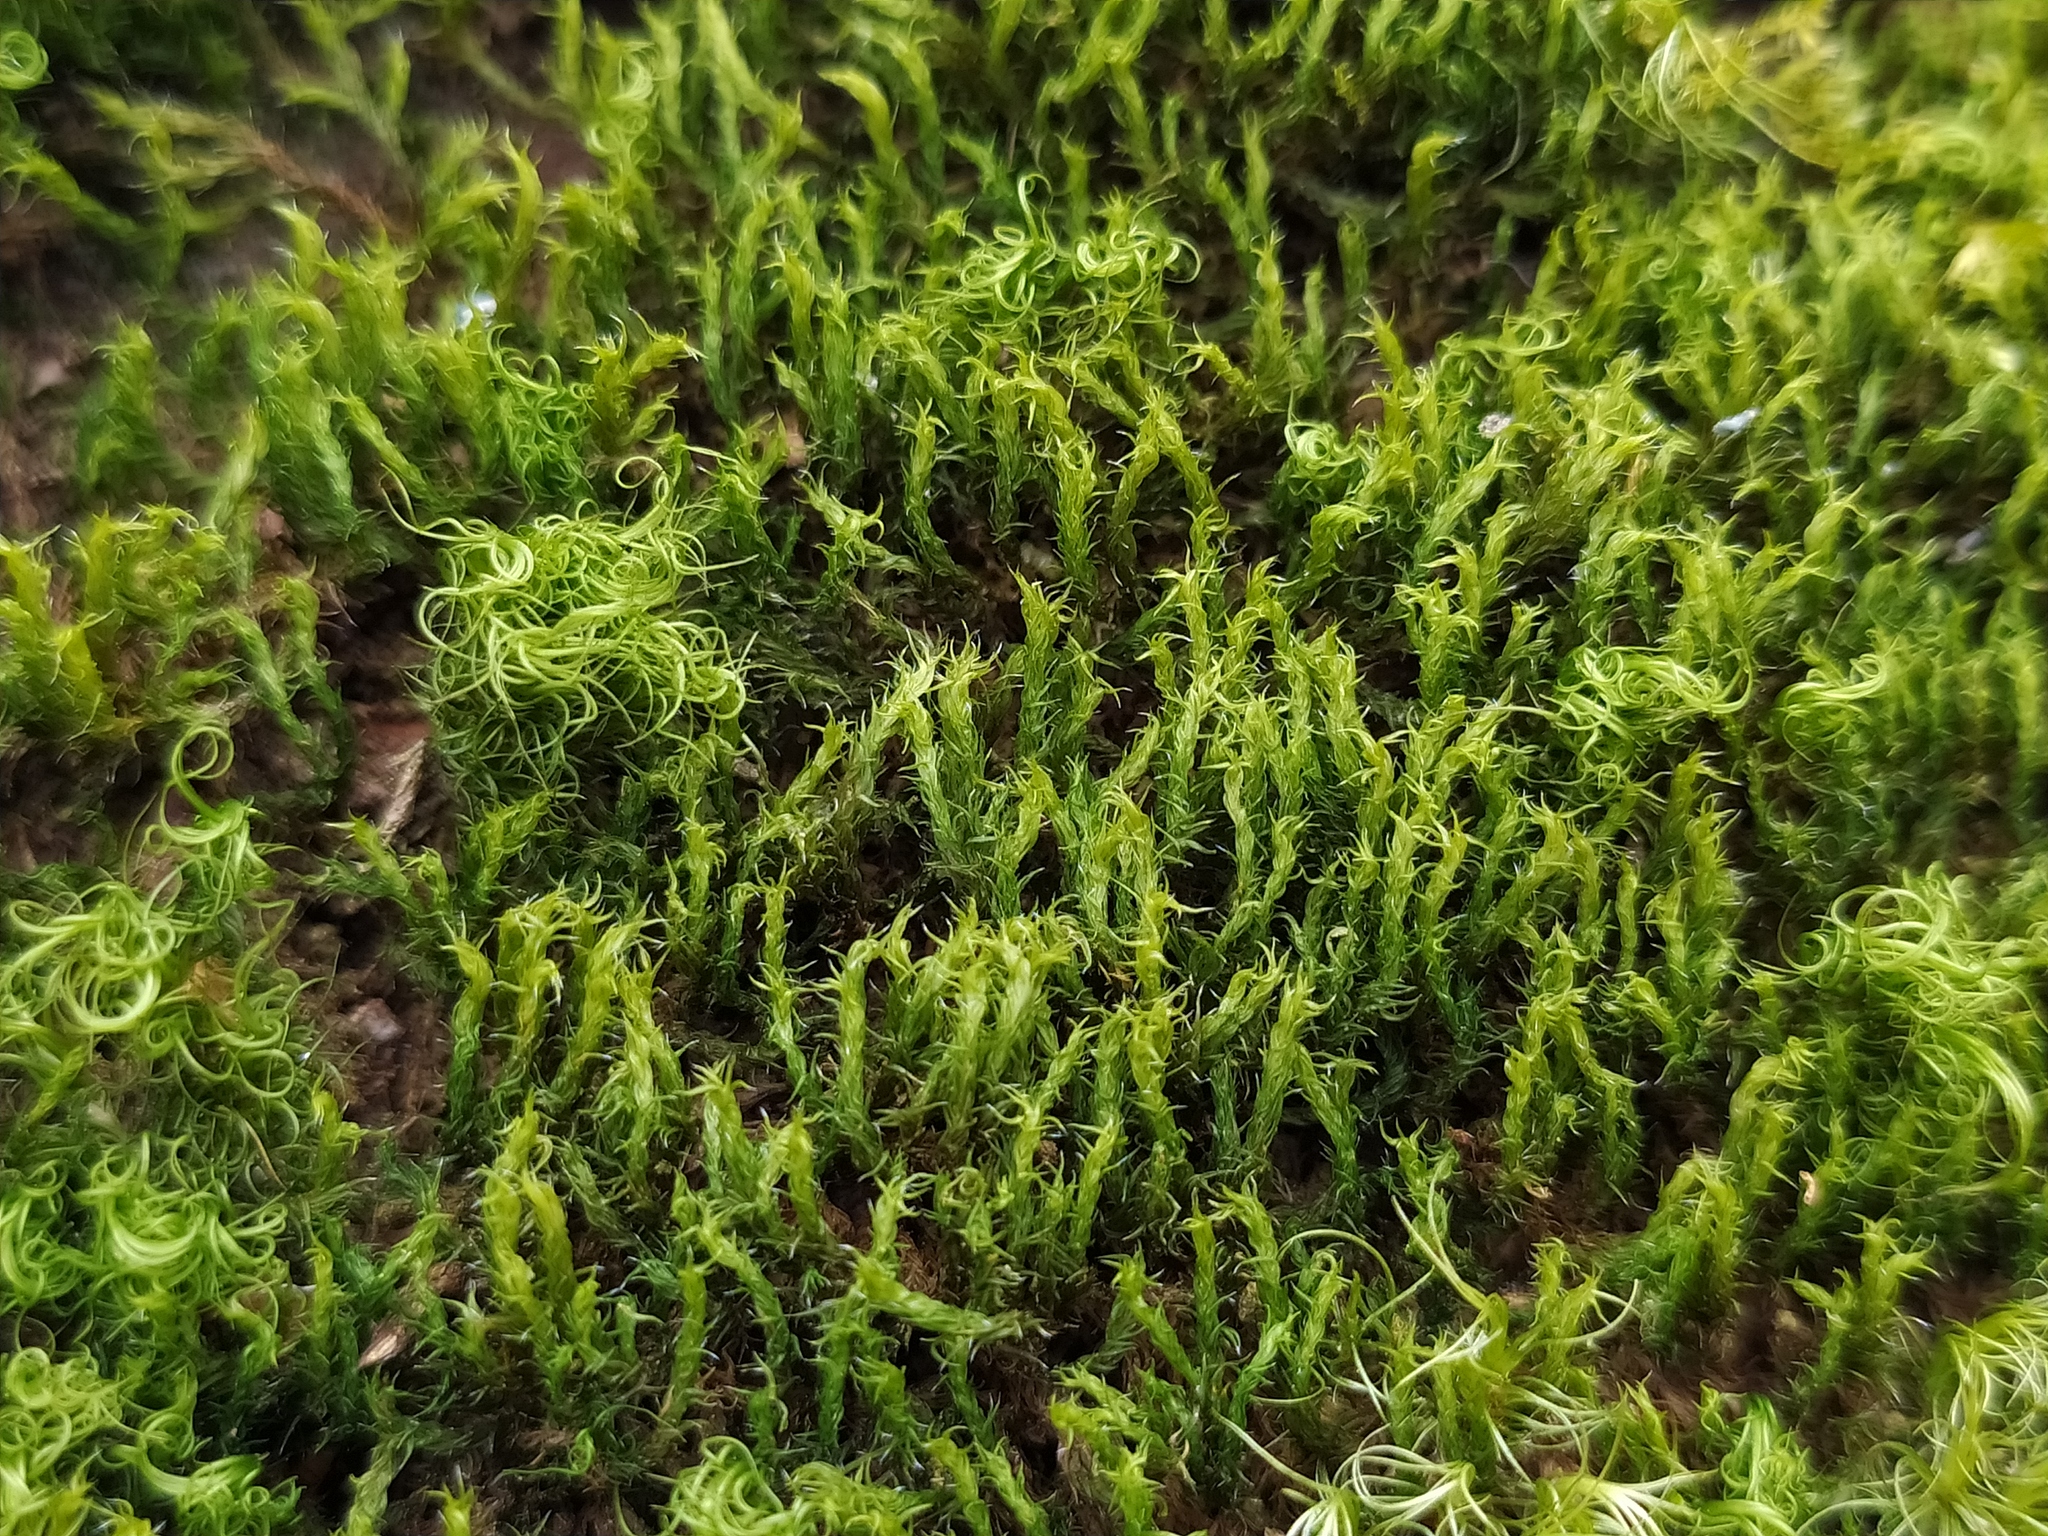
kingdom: Plantae
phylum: Bryophyta
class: Bryopsida
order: Grimmiales
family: Grimmiaceae
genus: Grimmia
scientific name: Grimmia hartmanii
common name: Hartman's grimmia
